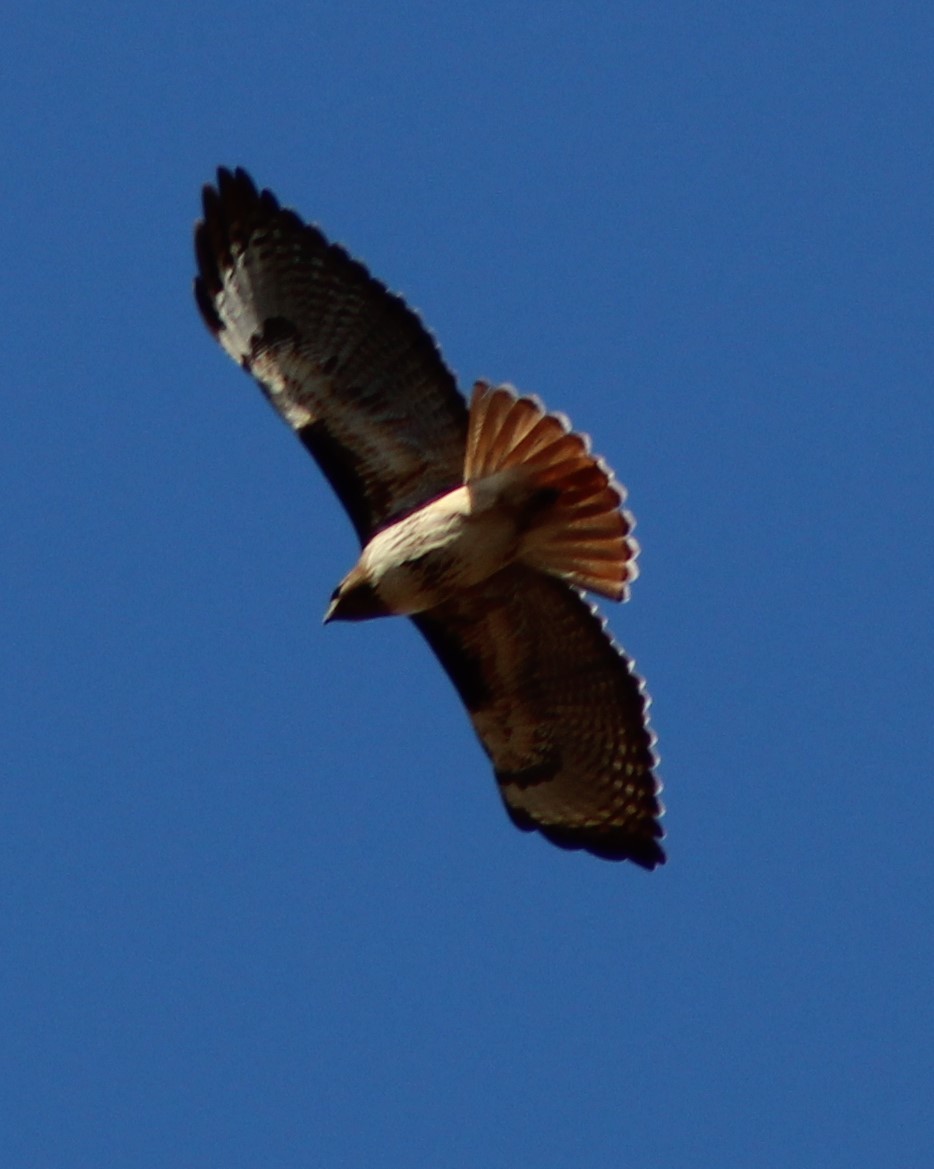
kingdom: Animalia
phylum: Chordata
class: Aves
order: Accipitriformes
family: Accipitridae
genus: Buteo
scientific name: Buteo jamaicensis
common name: Red-tailed hawk
